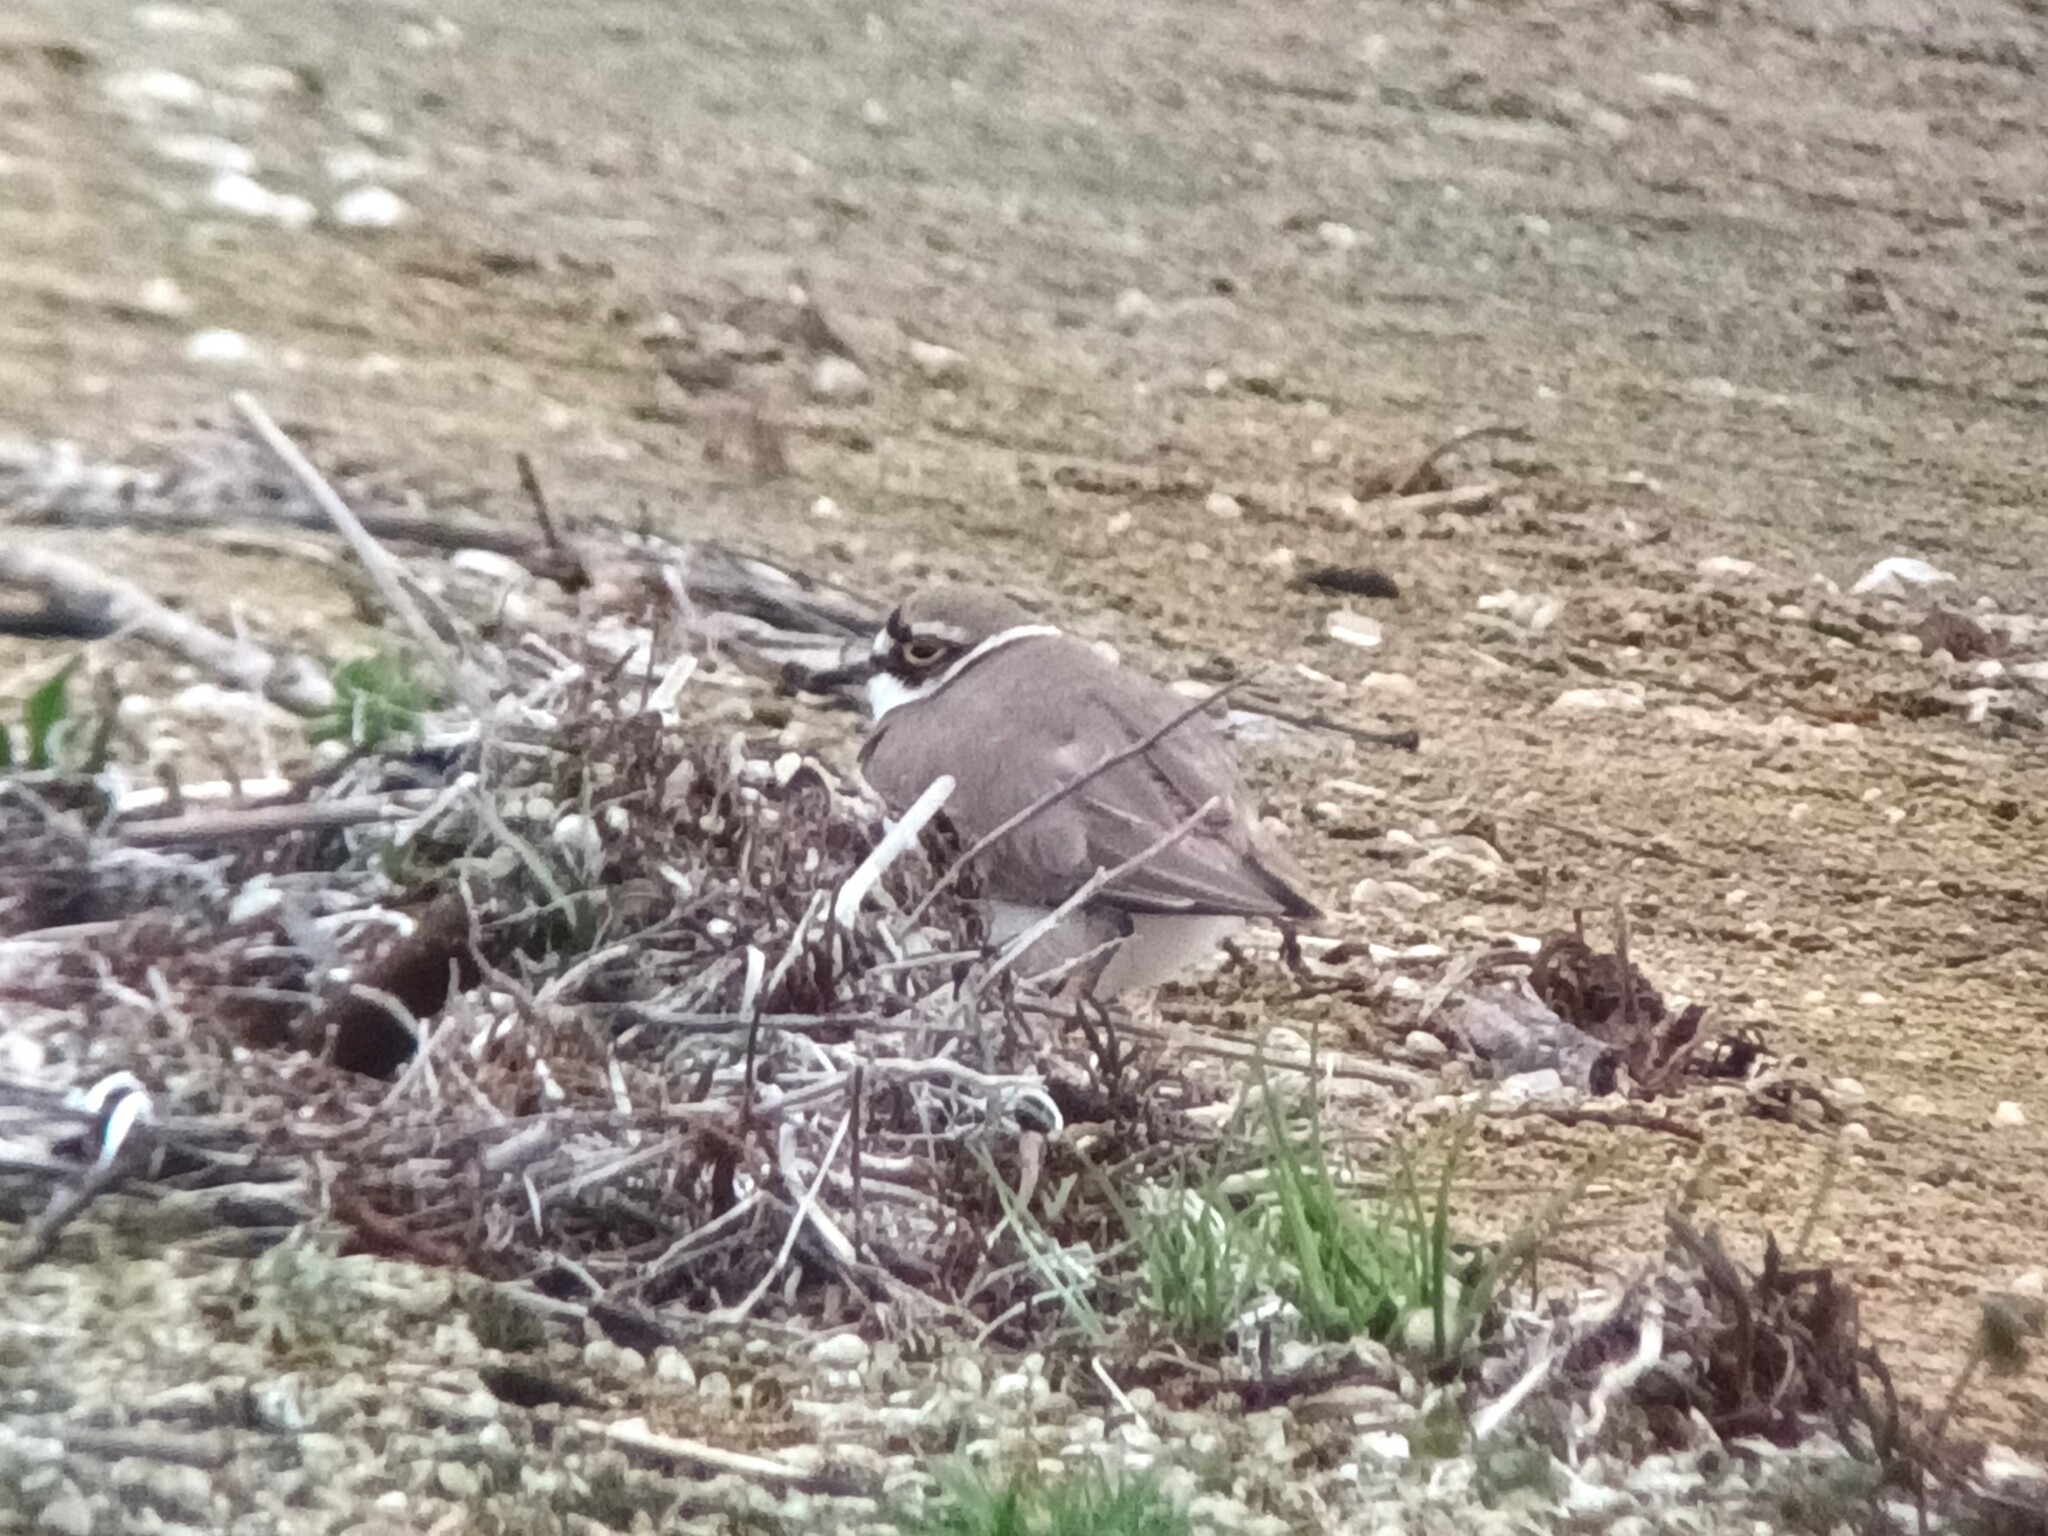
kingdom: Animalia
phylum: Chordata
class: Aves
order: Charadriiformes
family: Charadriidae
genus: Charadrius
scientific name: Charadrius dubius
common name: Little ringed plover
